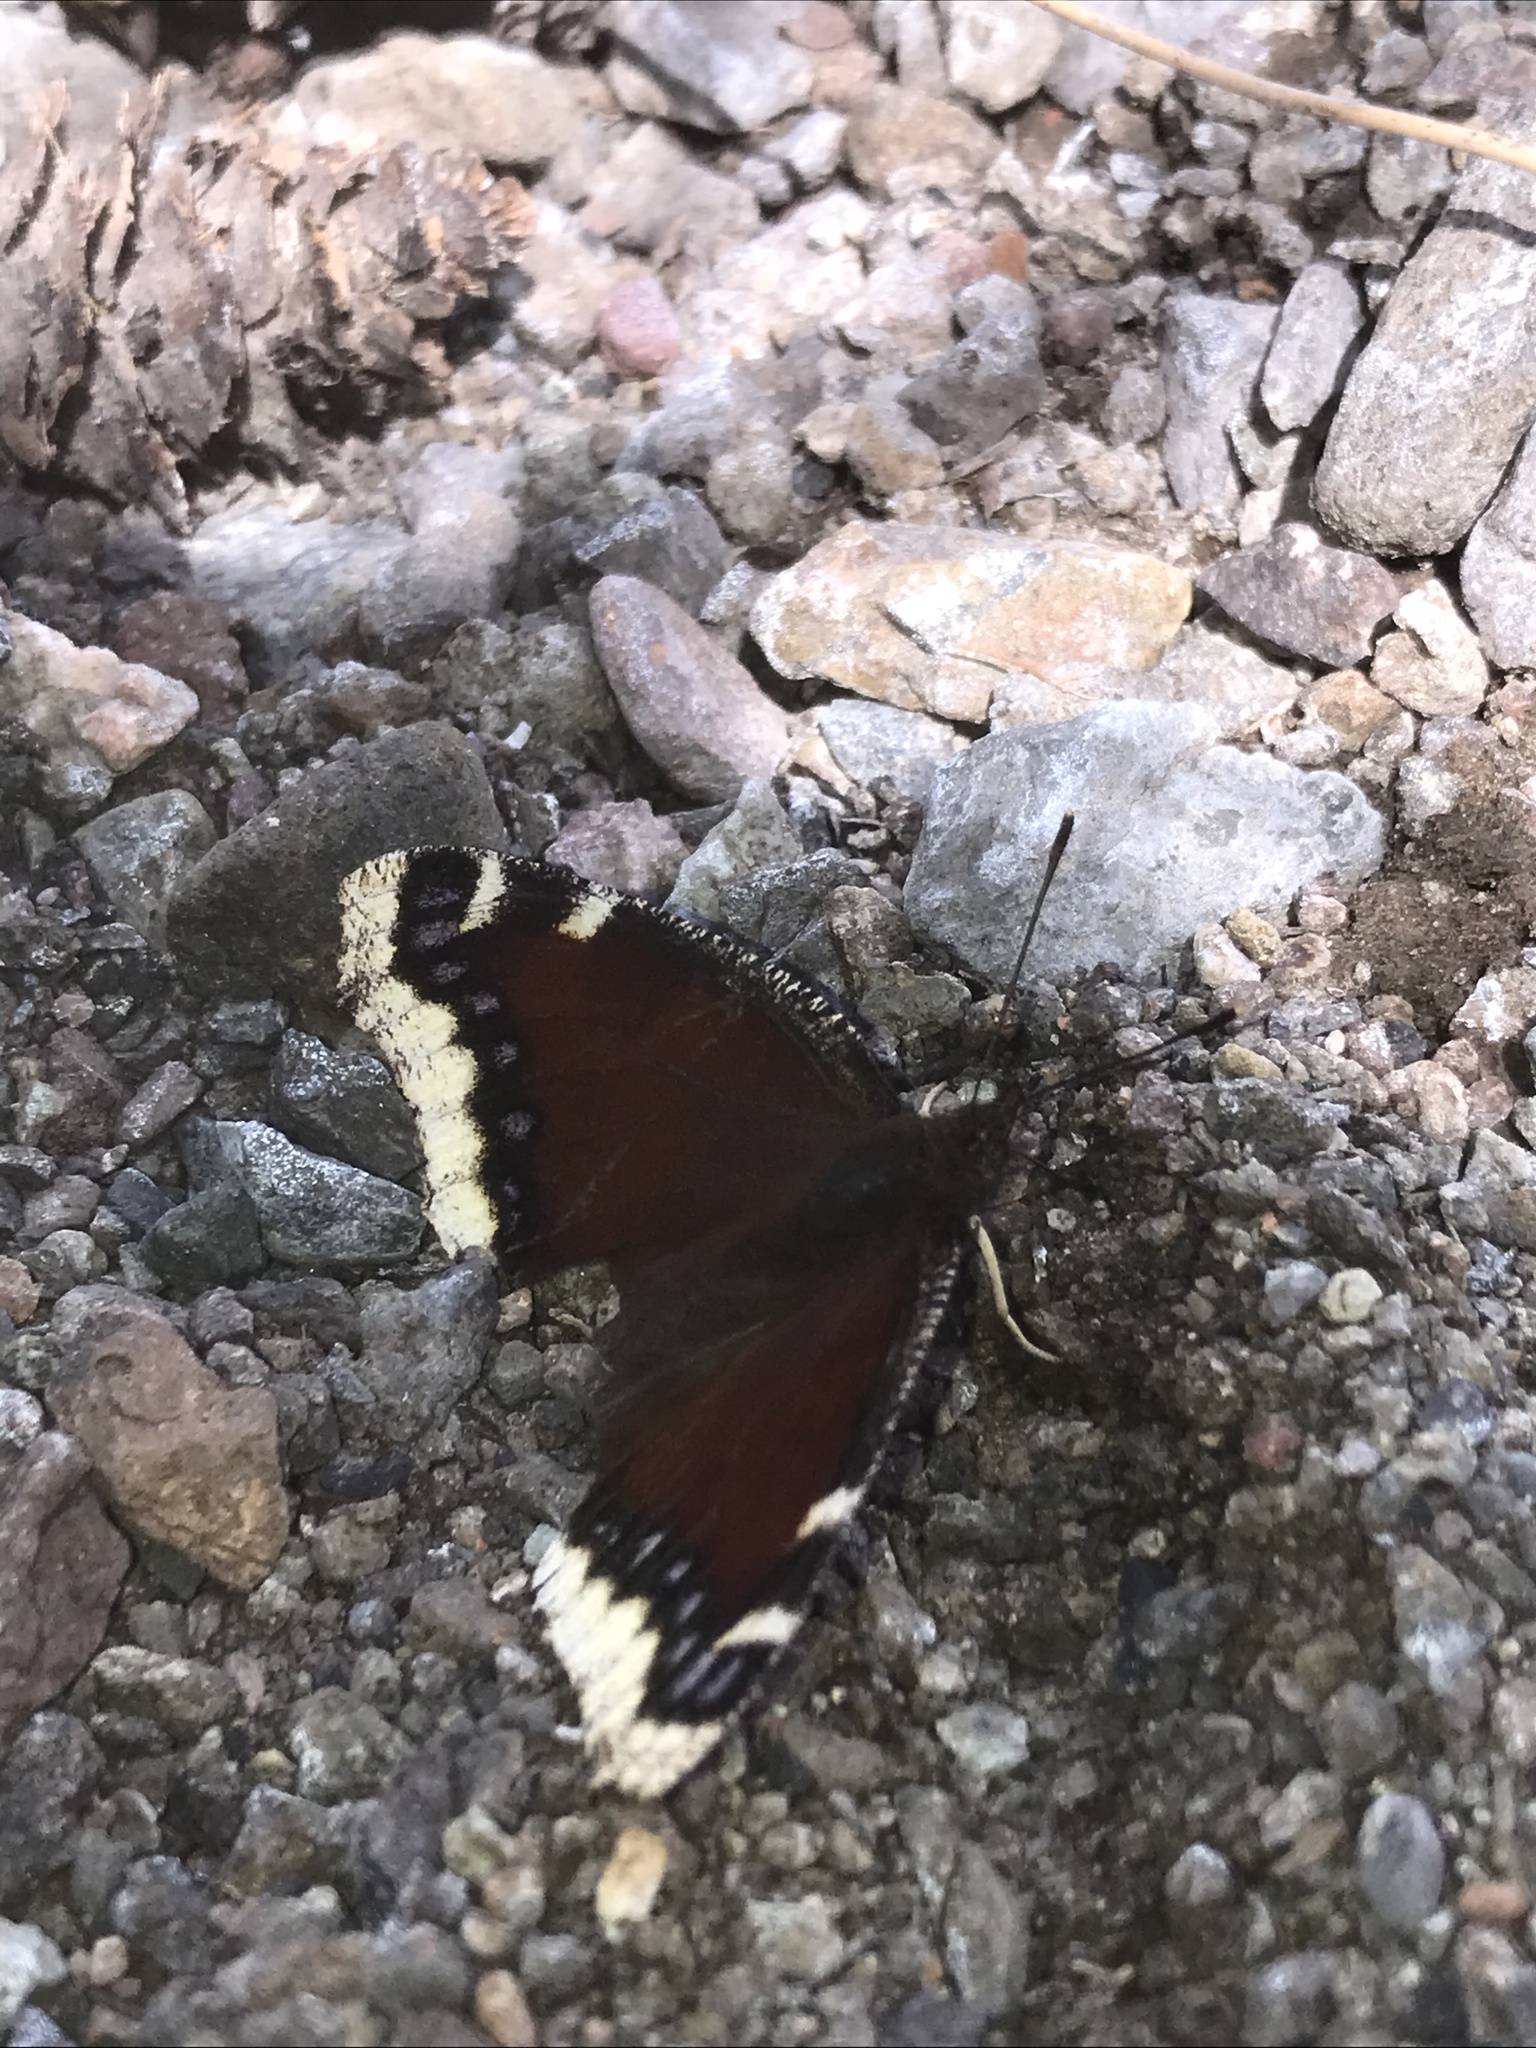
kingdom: Animalia
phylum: Arthropoda
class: Insecta
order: Lepidoptera
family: Nymphalidae
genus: Nymphalis
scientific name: Nymphalis antiopa
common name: Camberwell beauty
